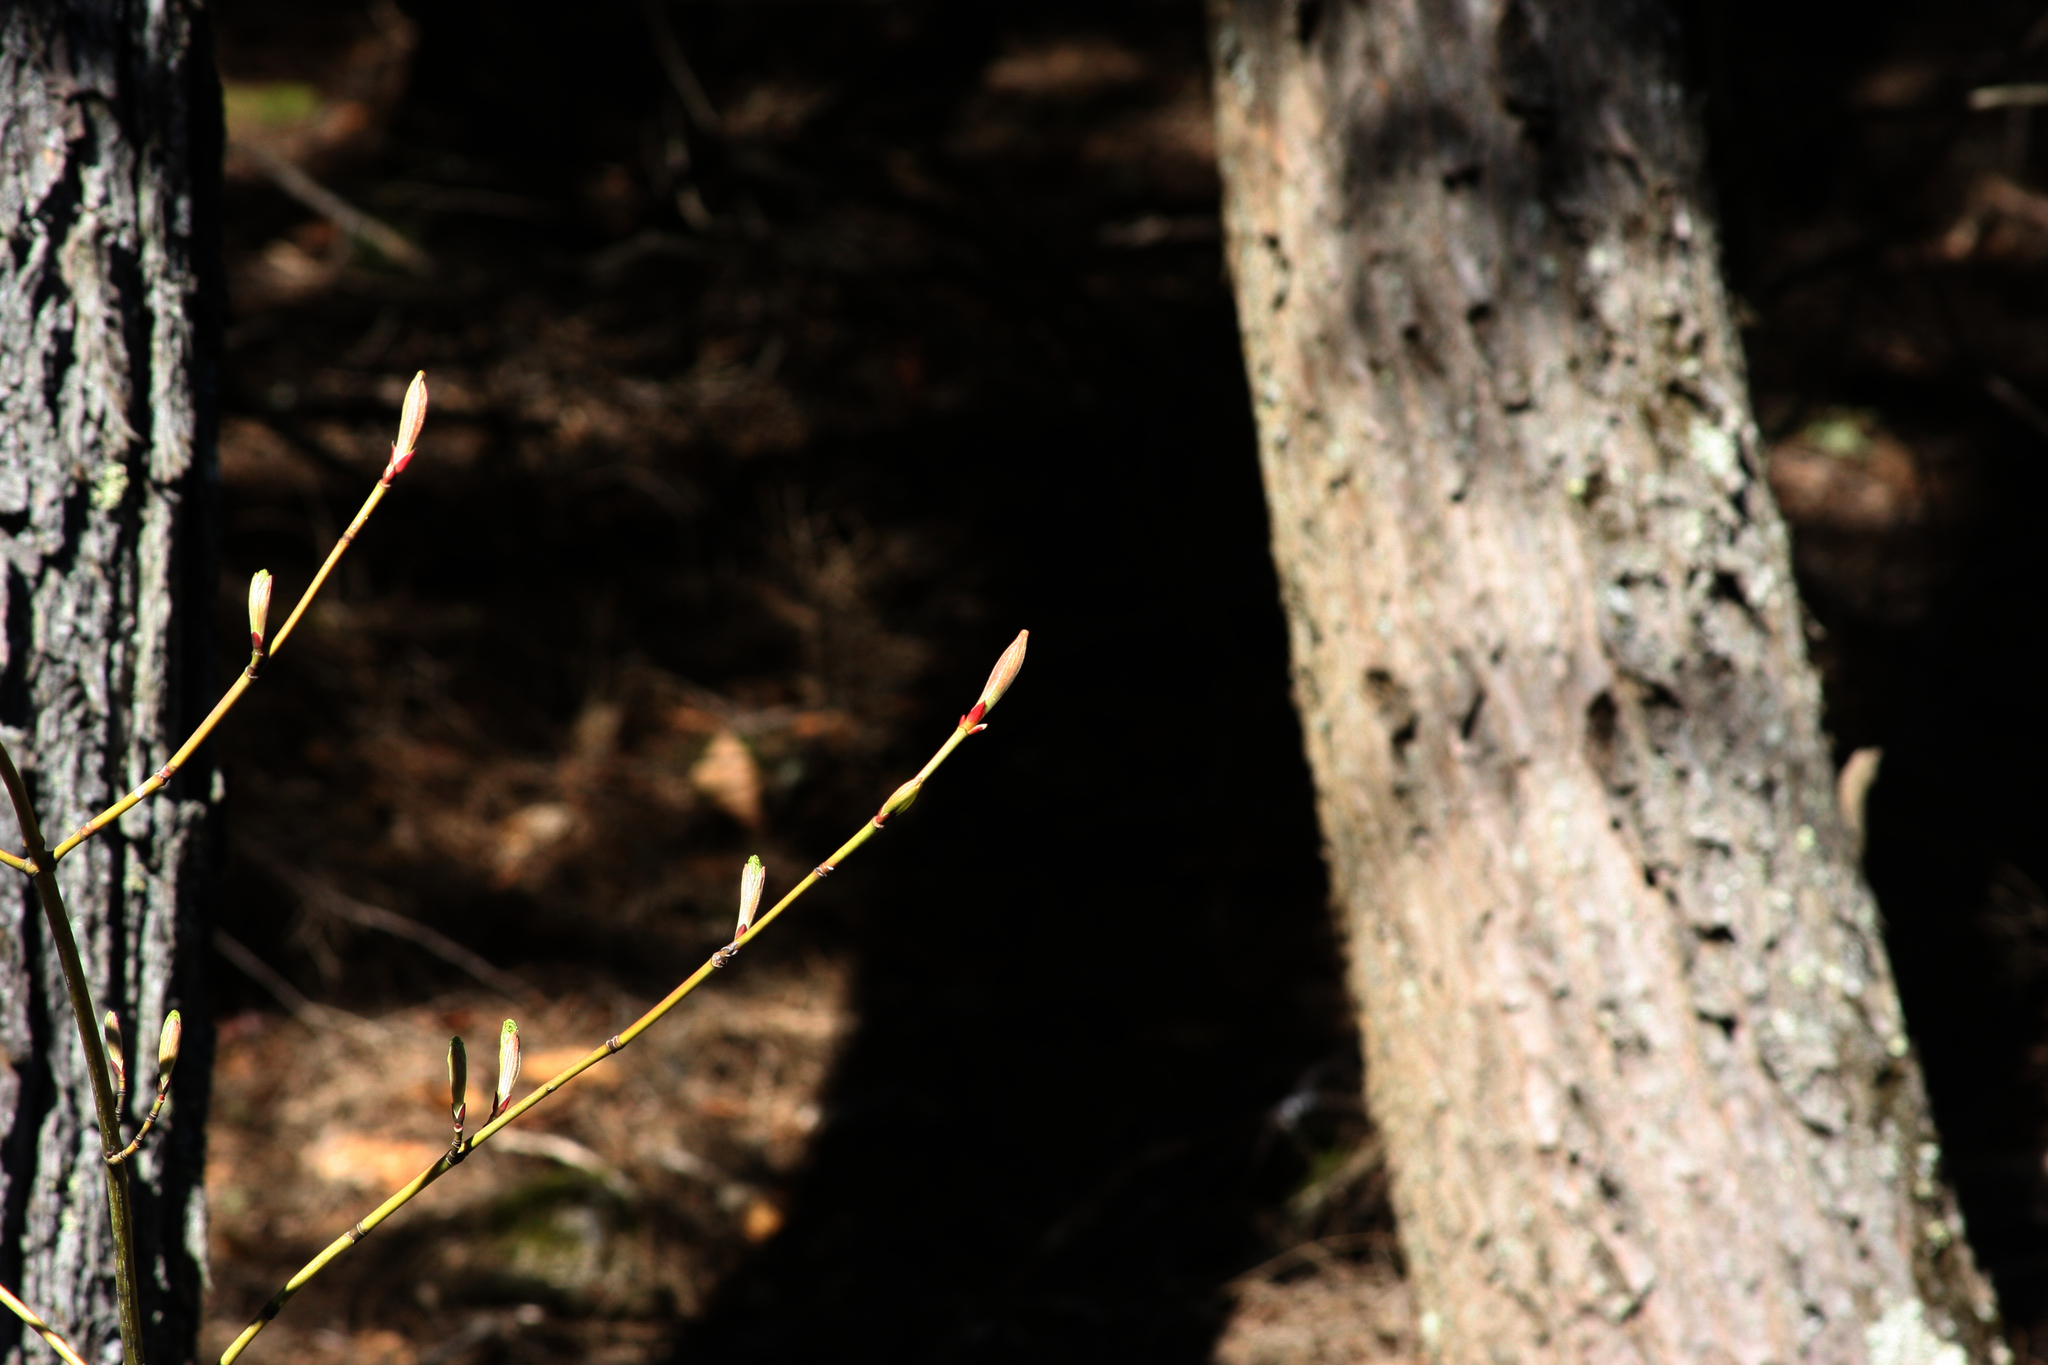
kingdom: Plantae
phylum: Tracheophyta
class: Magnoliopsida
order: Sapindales
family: Sapindaceae
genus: Acer
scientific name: Acer pensylvanicum
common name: Moosewood
